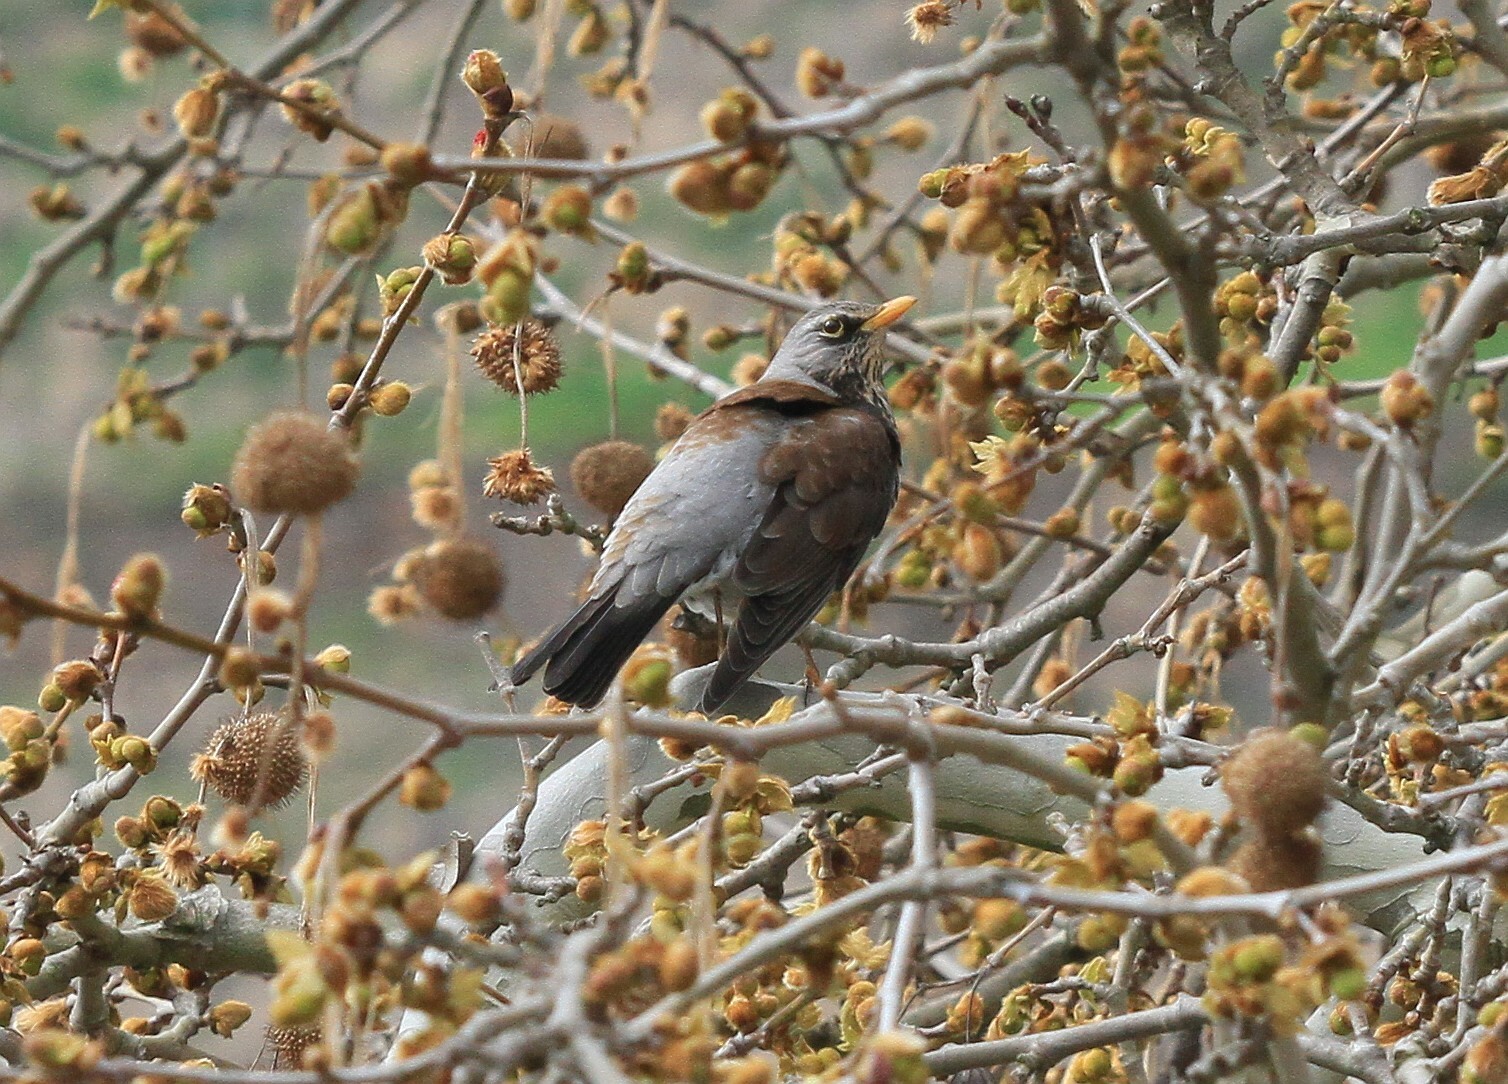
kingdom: Animalia
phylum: Chordata
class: Aves
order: Passeriformes
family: Turdidae
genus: Turdus
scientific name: Turdus pilaris
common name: Fieldfare
